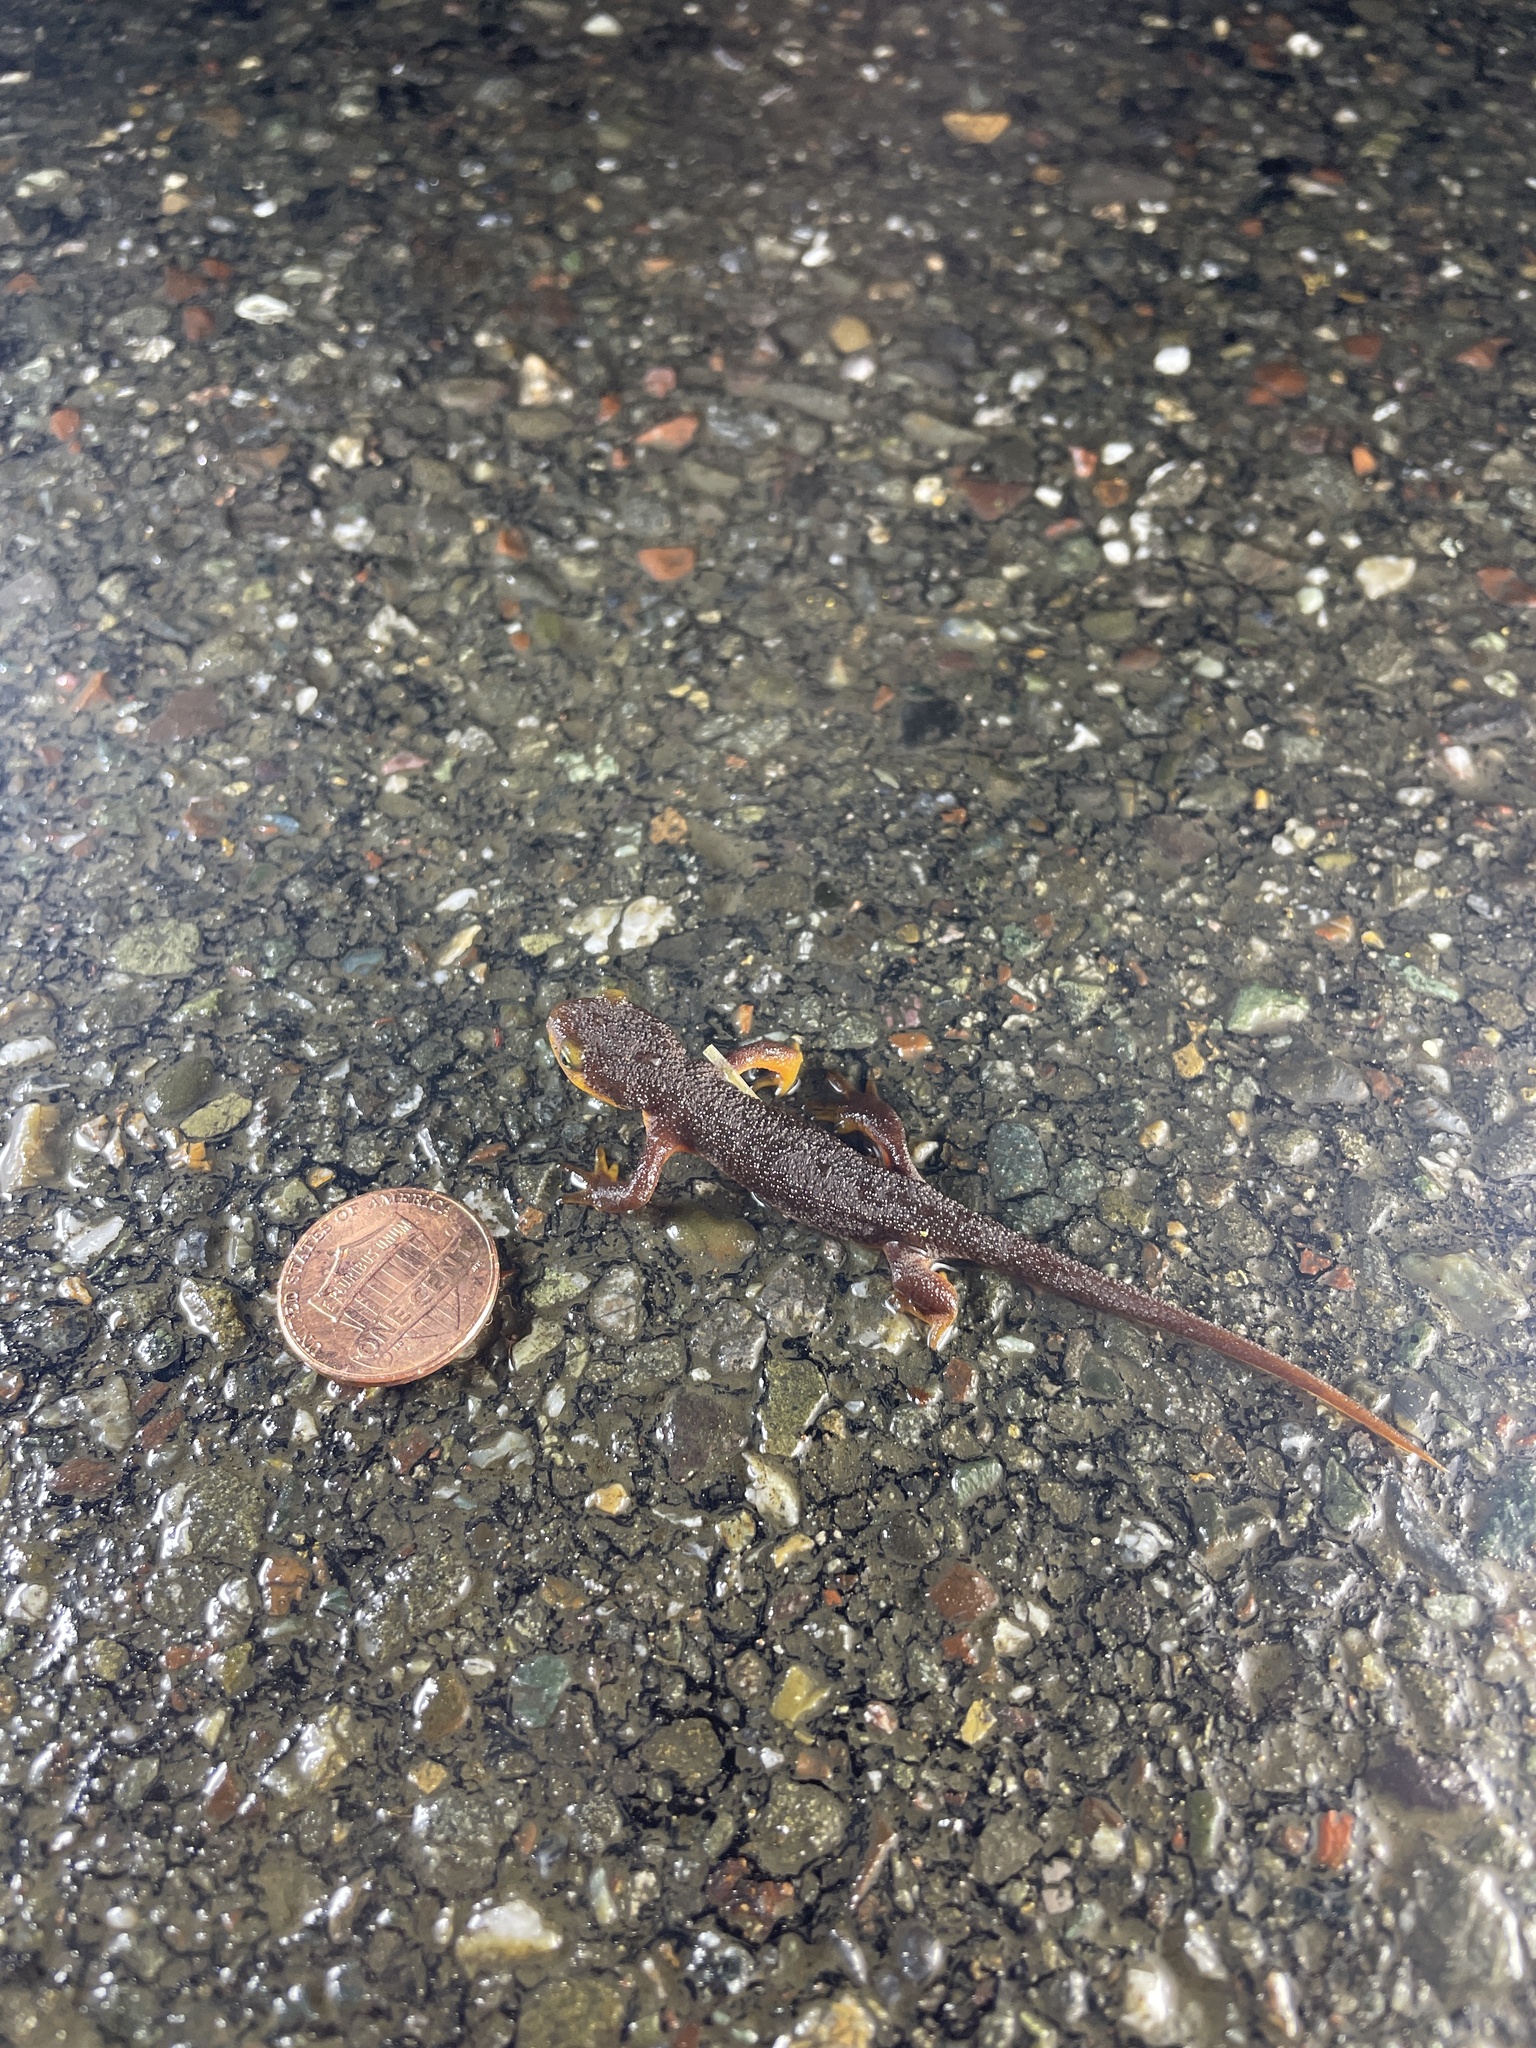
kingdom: Animalia
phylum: Chordata
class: Amphibia
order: Caudata
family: Salamandridae
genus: Taricha
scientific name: Taricha torosa
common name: California newt
